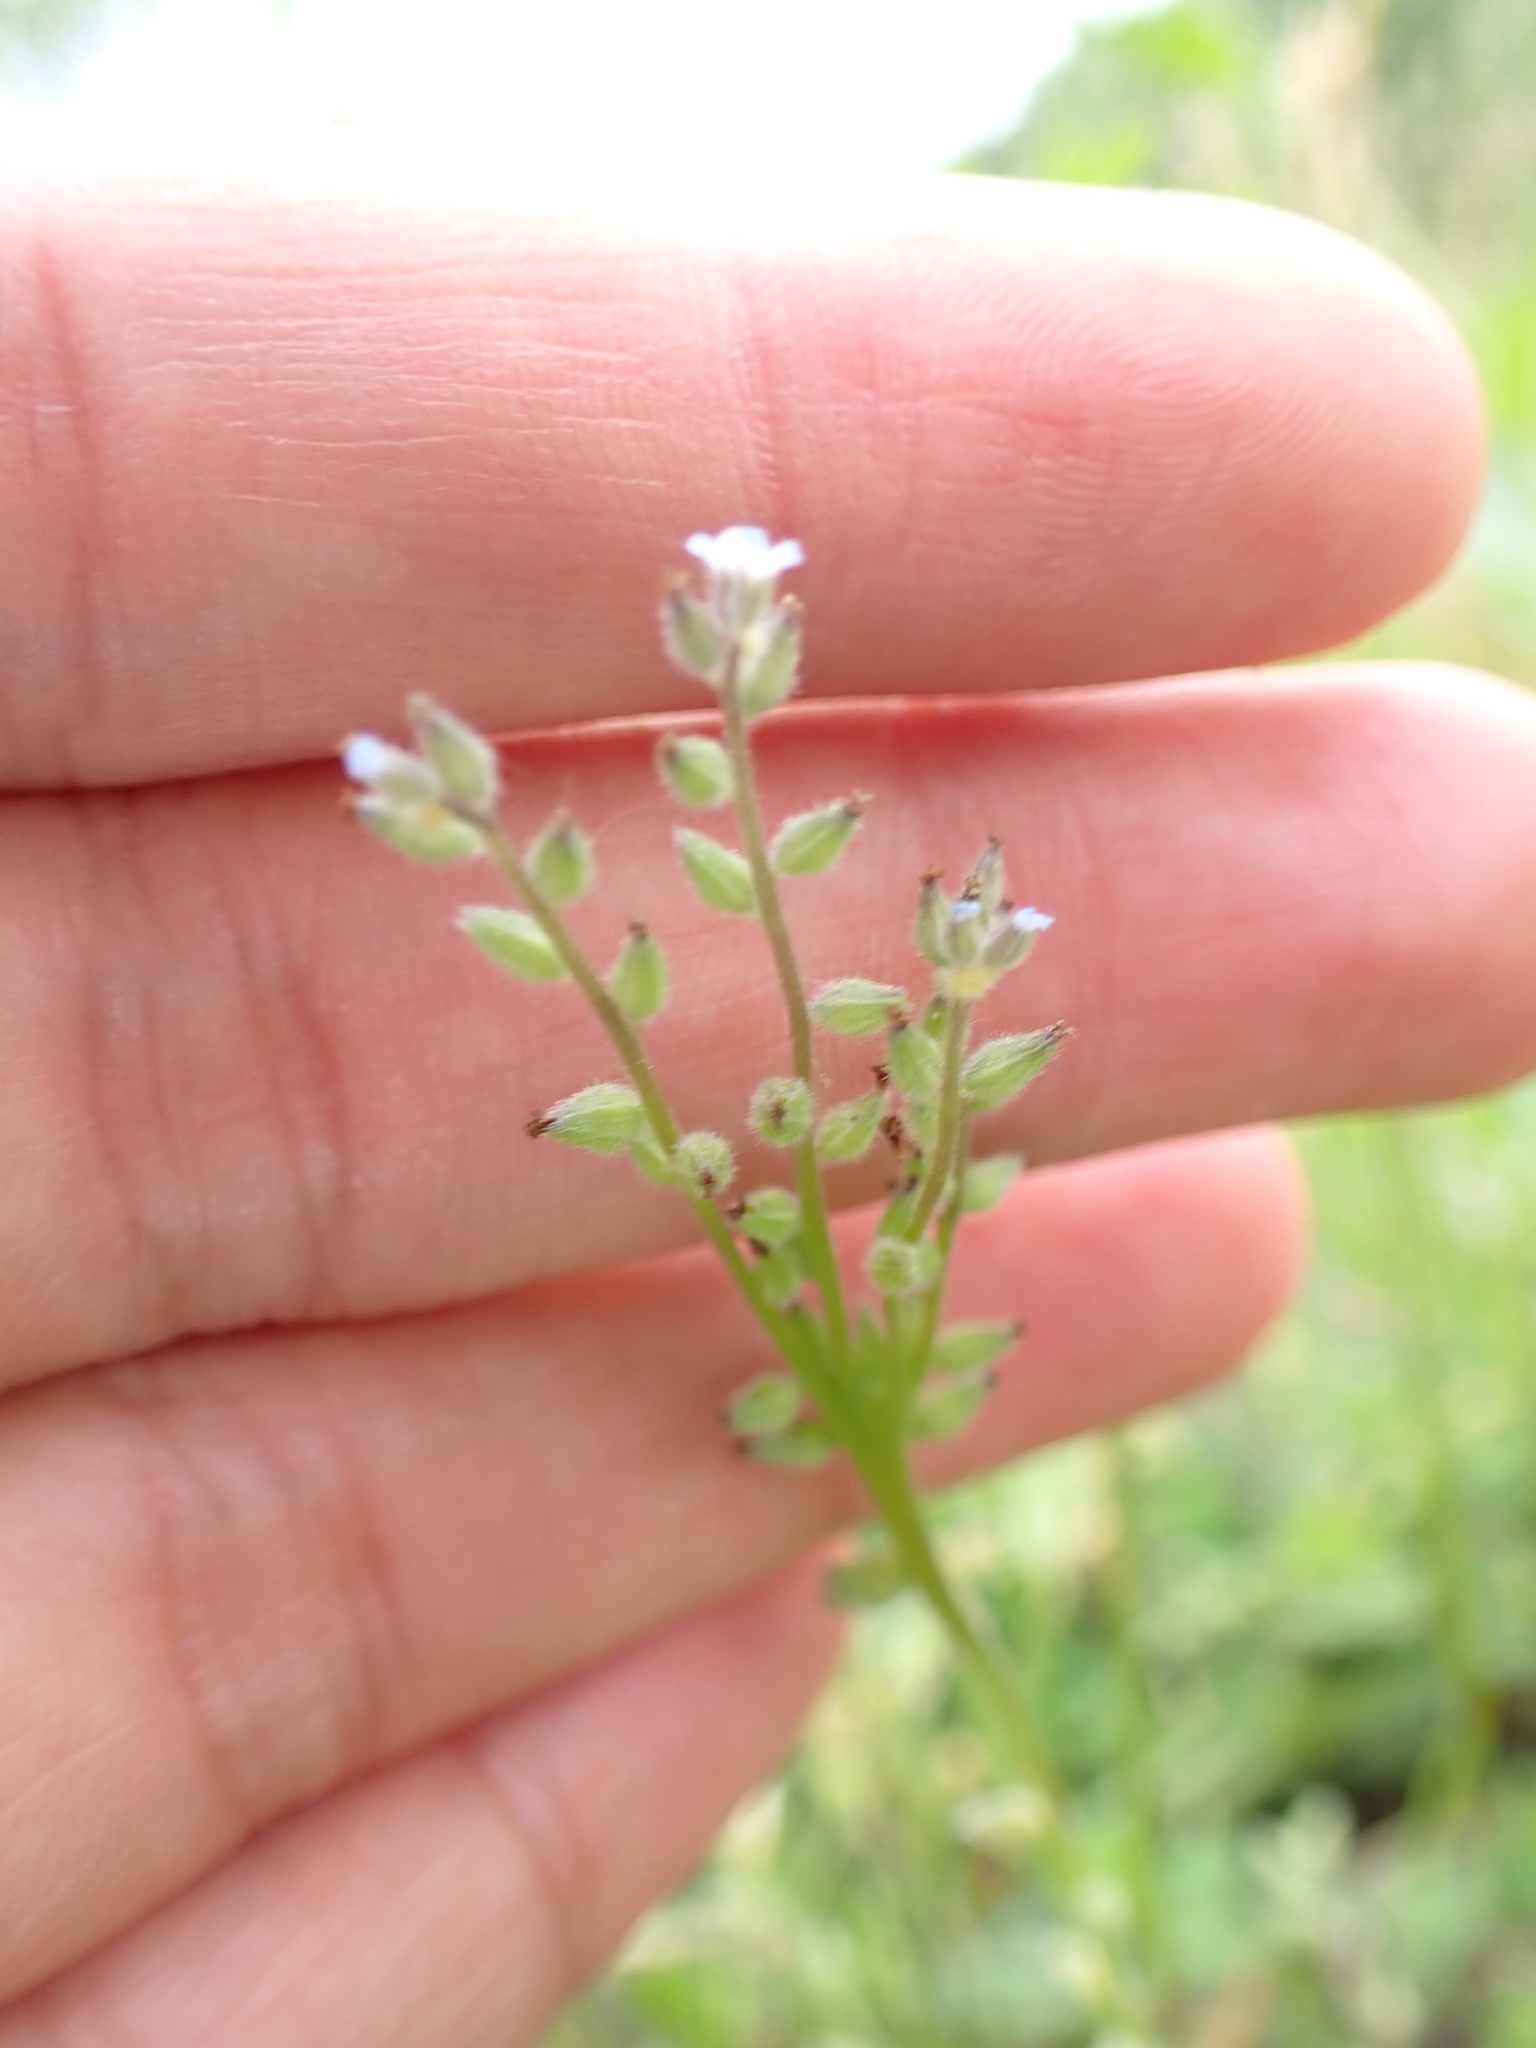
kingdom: Plantae
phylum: Tracheophyta
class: Magnoliopsida
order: Boraginales
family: Boraginaceae
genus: Myosotis
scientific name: Myosotis stricta
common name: Strict forget-me-not
